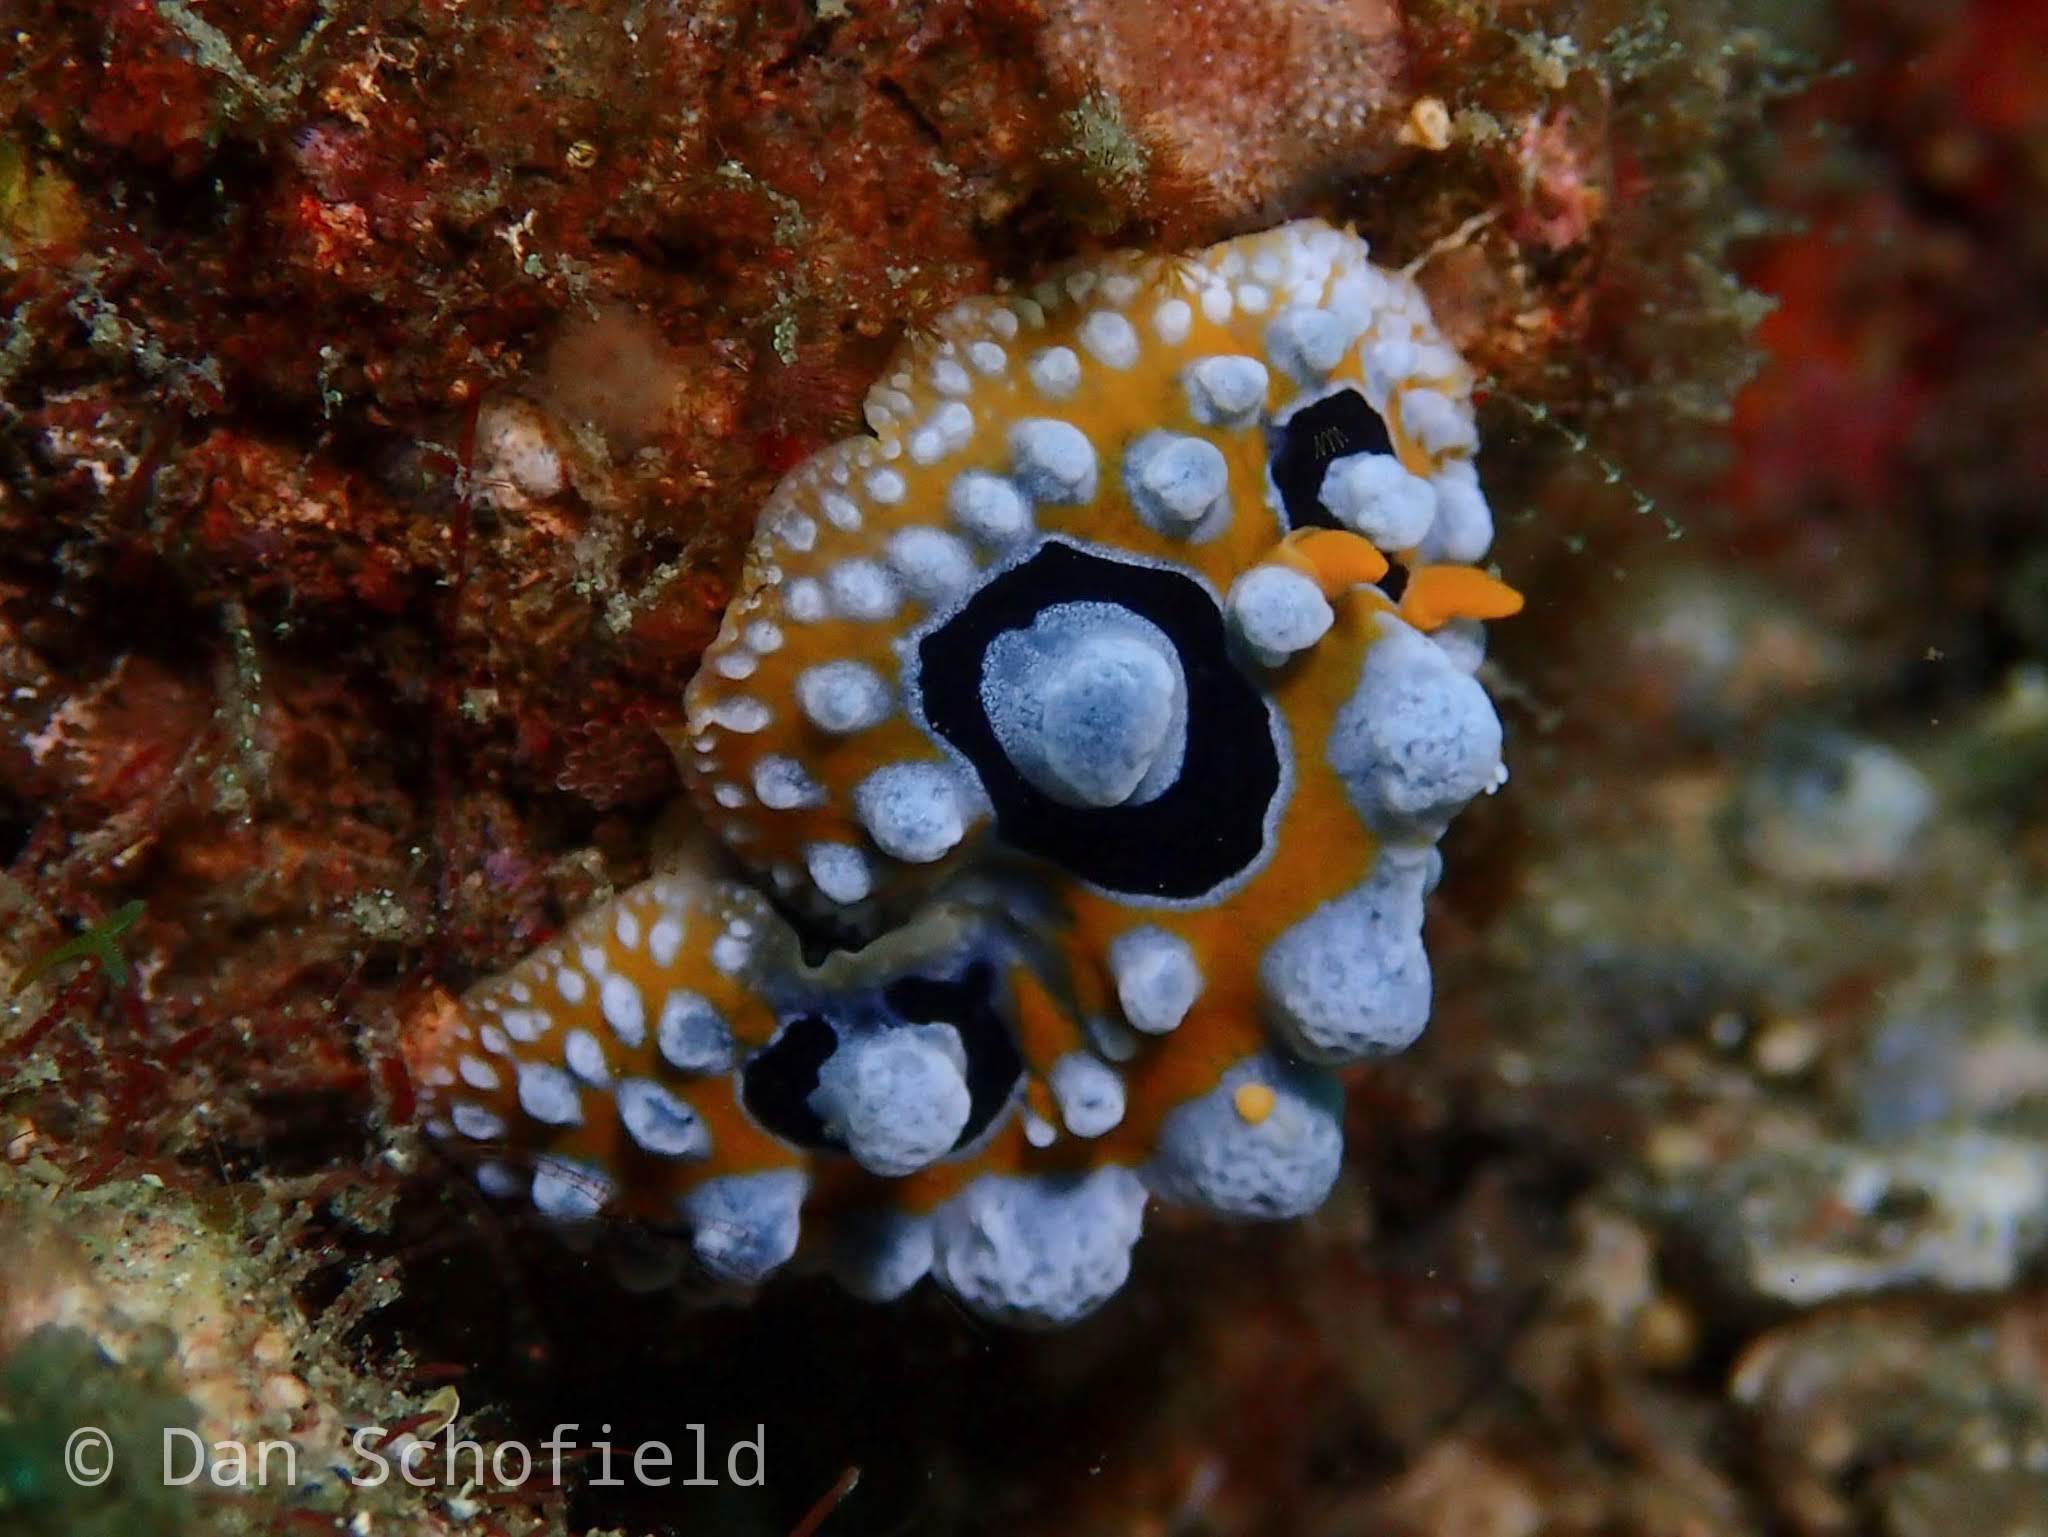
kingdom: Animalia
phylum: Mollusca
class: Gastropoda
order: Nudibranchia
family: Phyllidiidae
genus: Phyllidia
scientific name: Phyllidia ocellata
